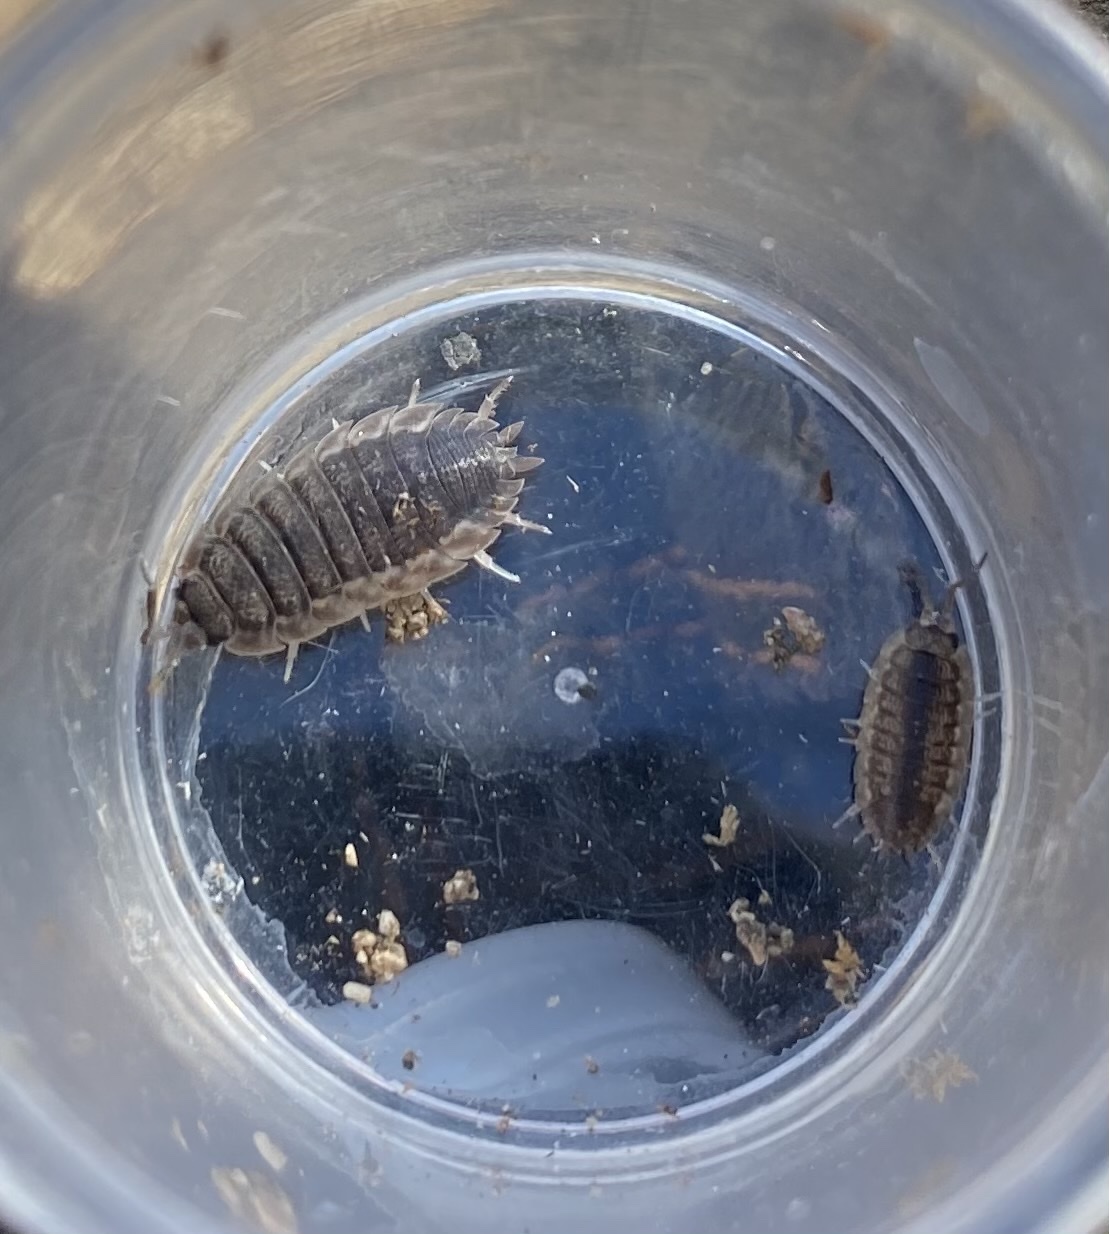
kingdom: Animalia
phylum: Arthropoda
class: Malacostraca
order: Isopoda
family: Porcellionidae
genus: Porcellio
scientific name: Porcellio scaber
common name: Common rough woodlouse
